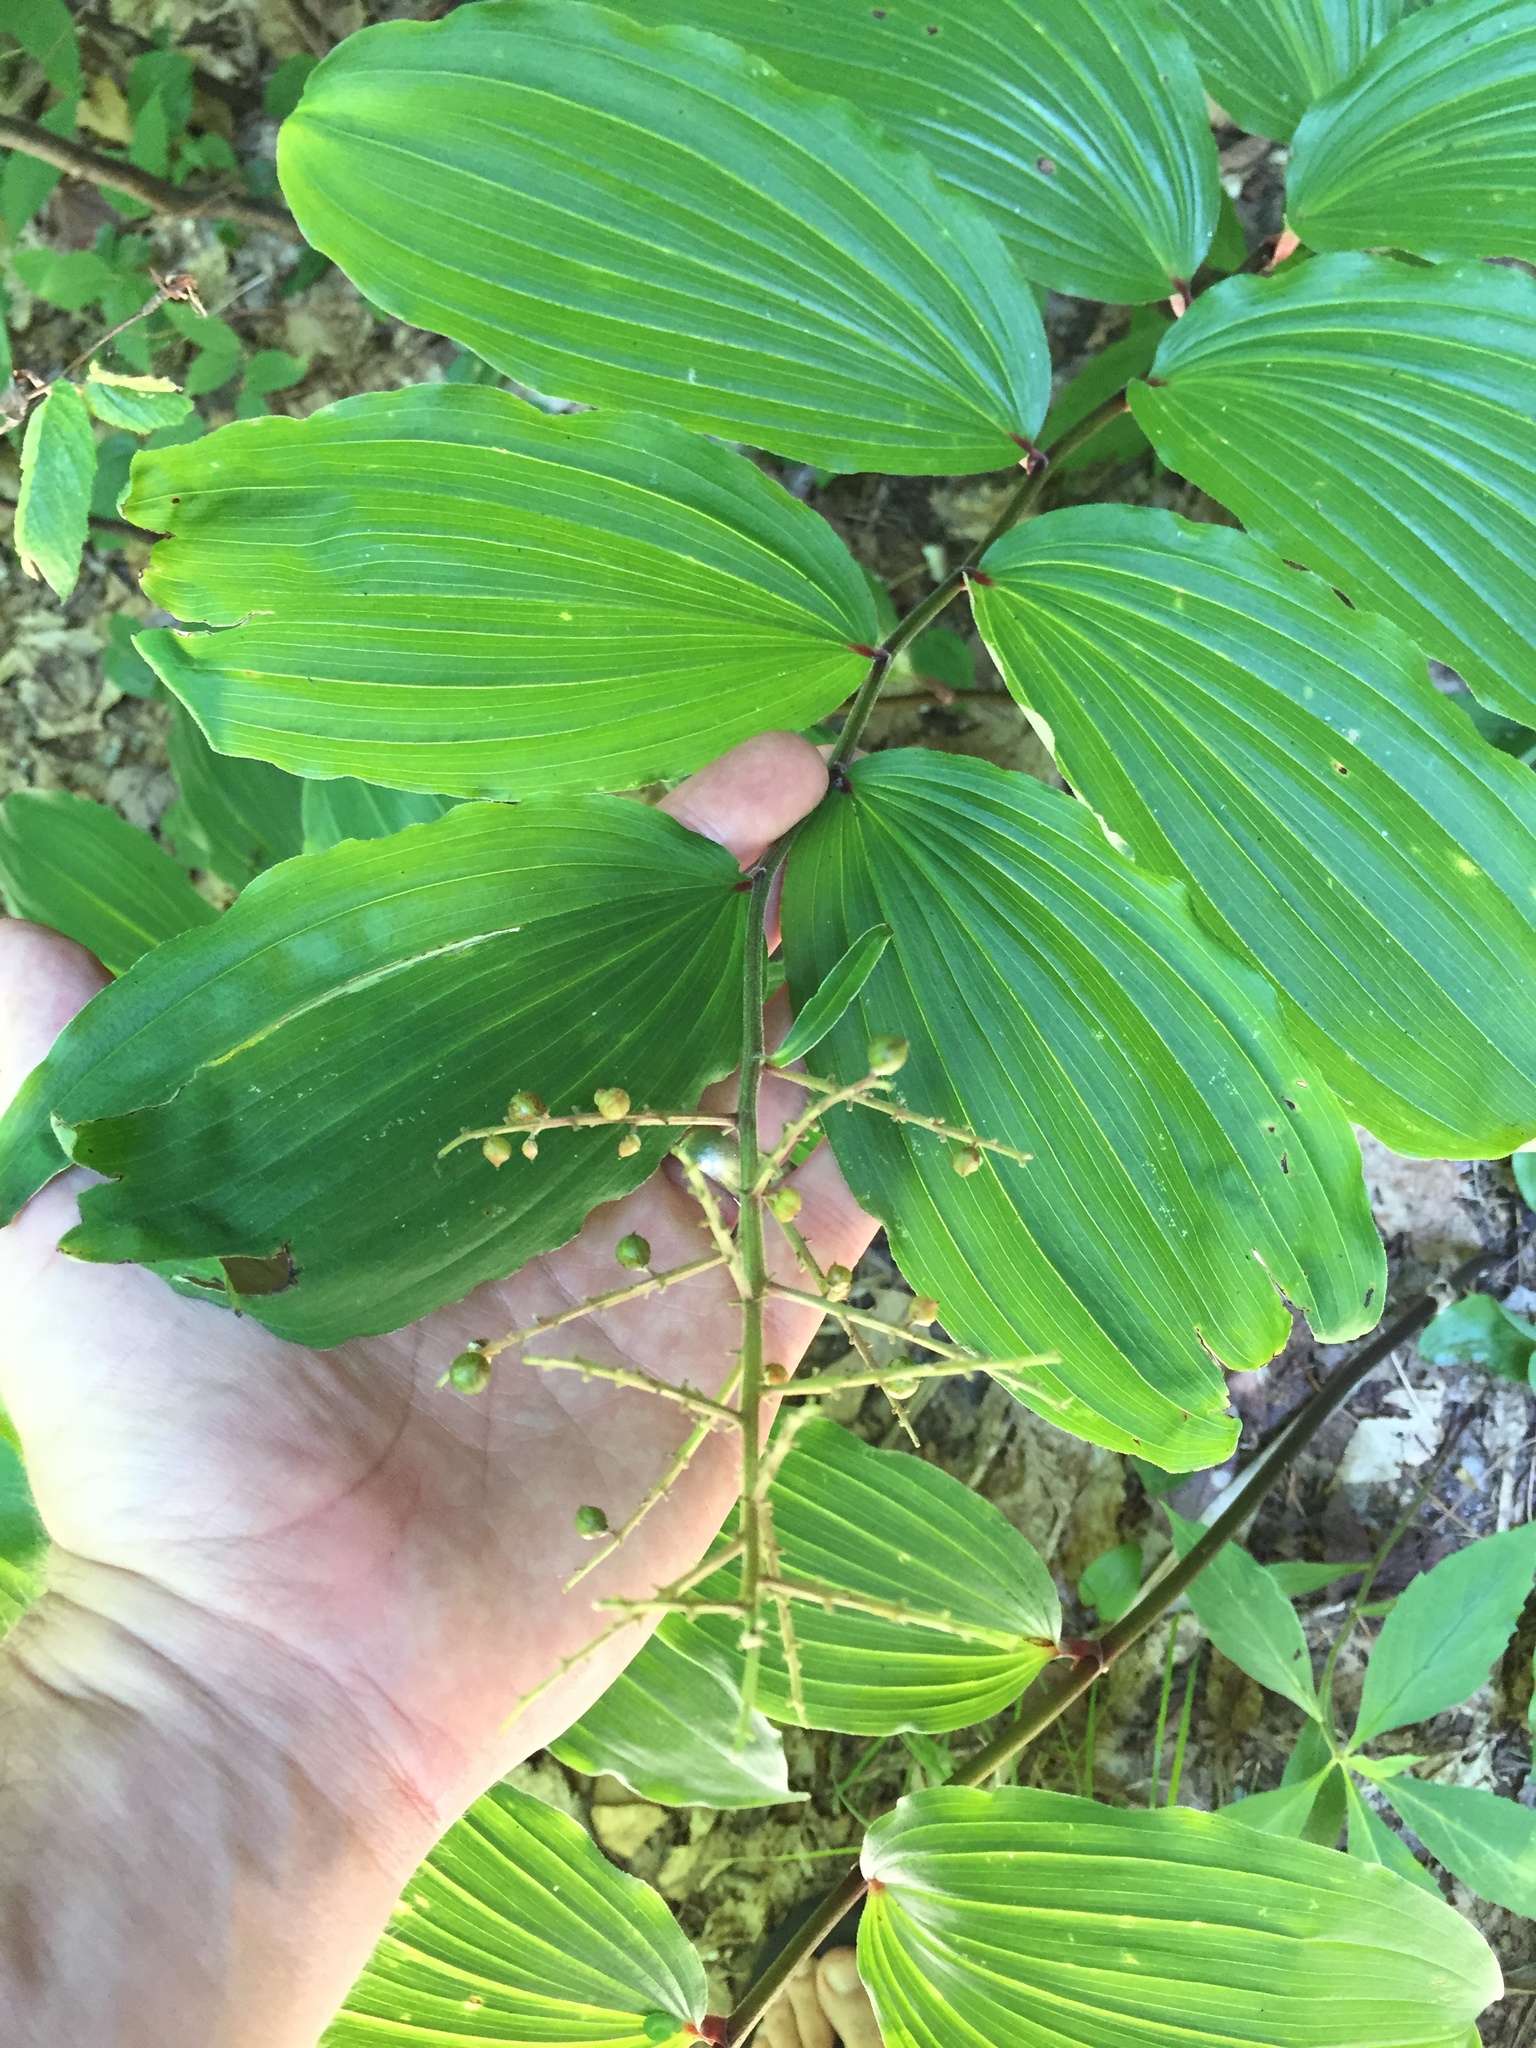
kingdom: Plantae
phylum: Tracheophyta
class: Liliopsida
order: Asparagales
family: Asparagaceae
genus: Maianthemum
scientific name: Maianthemum racemosum
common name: False spikenard
